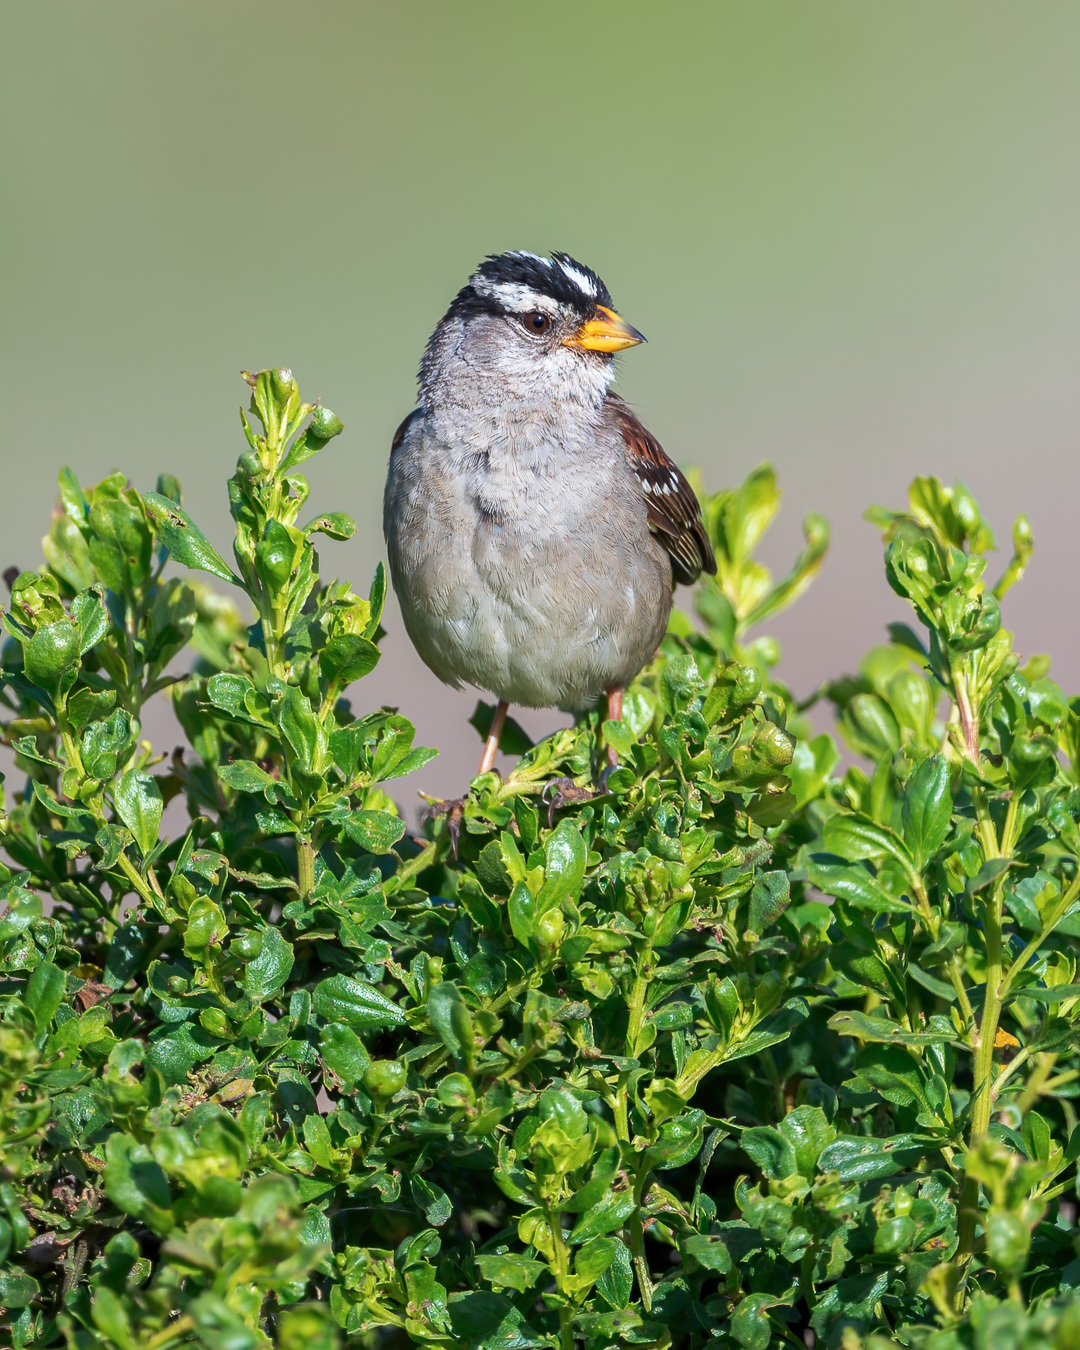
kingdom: Animalia
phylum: Chordata
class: Aves
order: Passeriformes
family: Passerellidae
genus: Zonotrichia
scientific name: Zonotrichia leucophrys
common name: White-crowned sparrow
